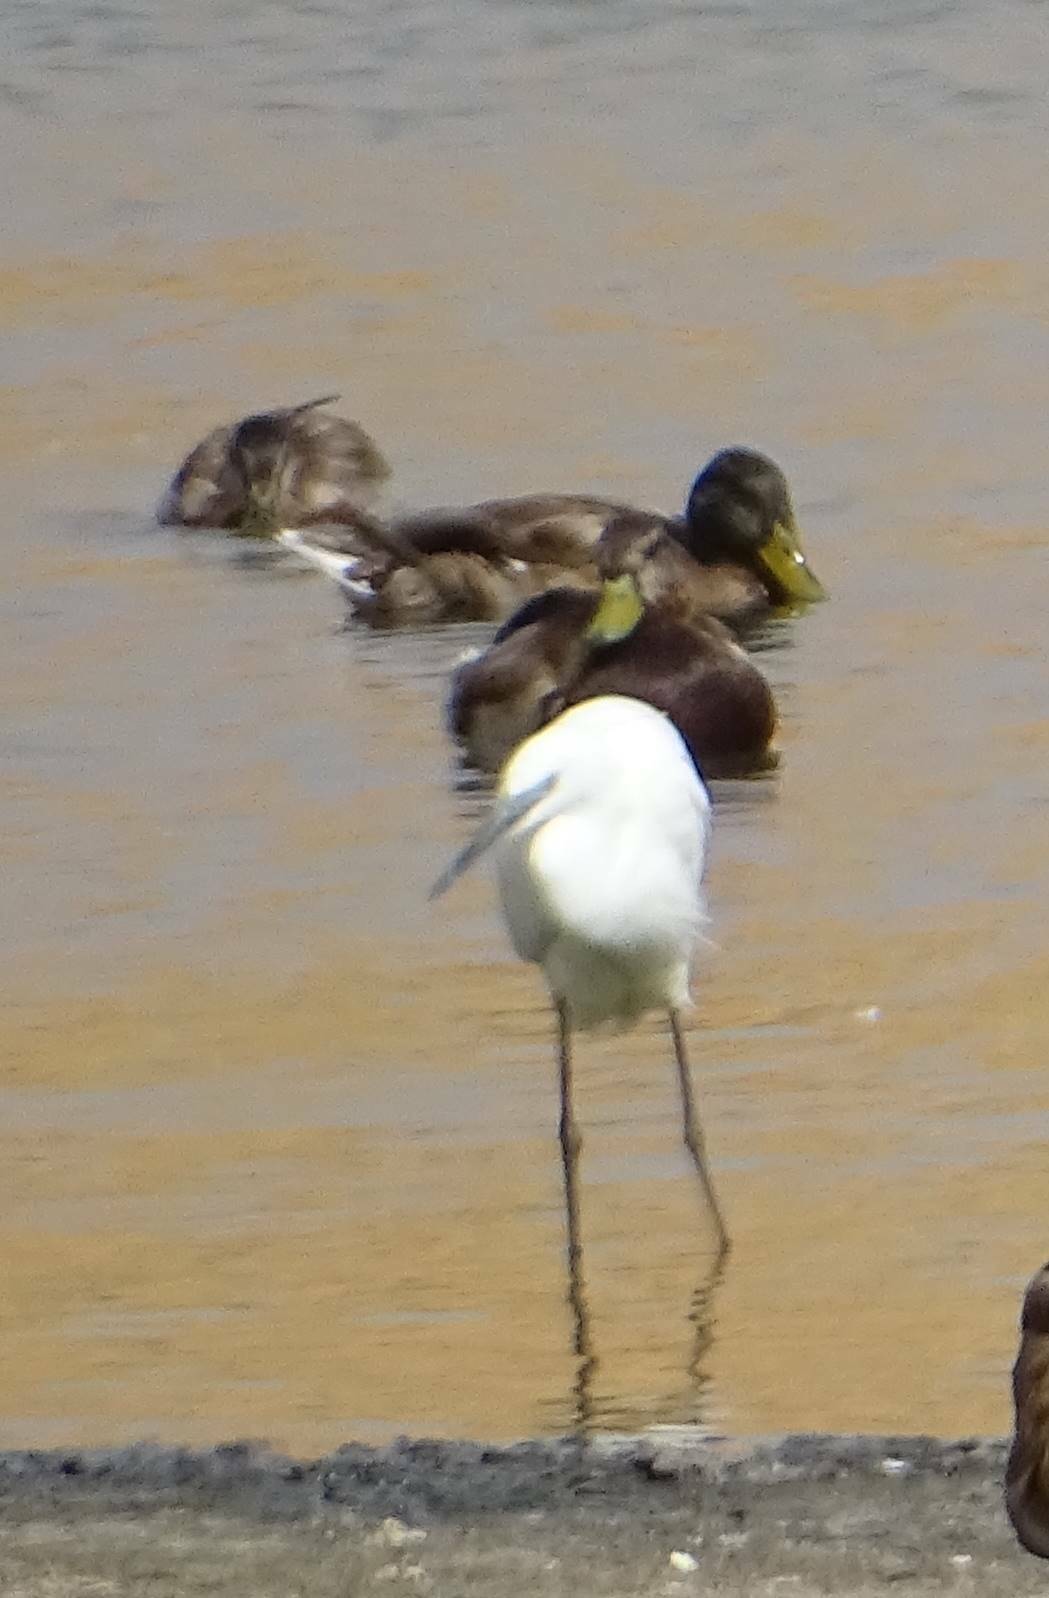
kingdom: Animalia
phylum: Chordata
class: Aves
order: Pelecaniformes
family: Ardeidae
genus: Egretta
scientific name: Egretta garzetta
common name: Little egret
